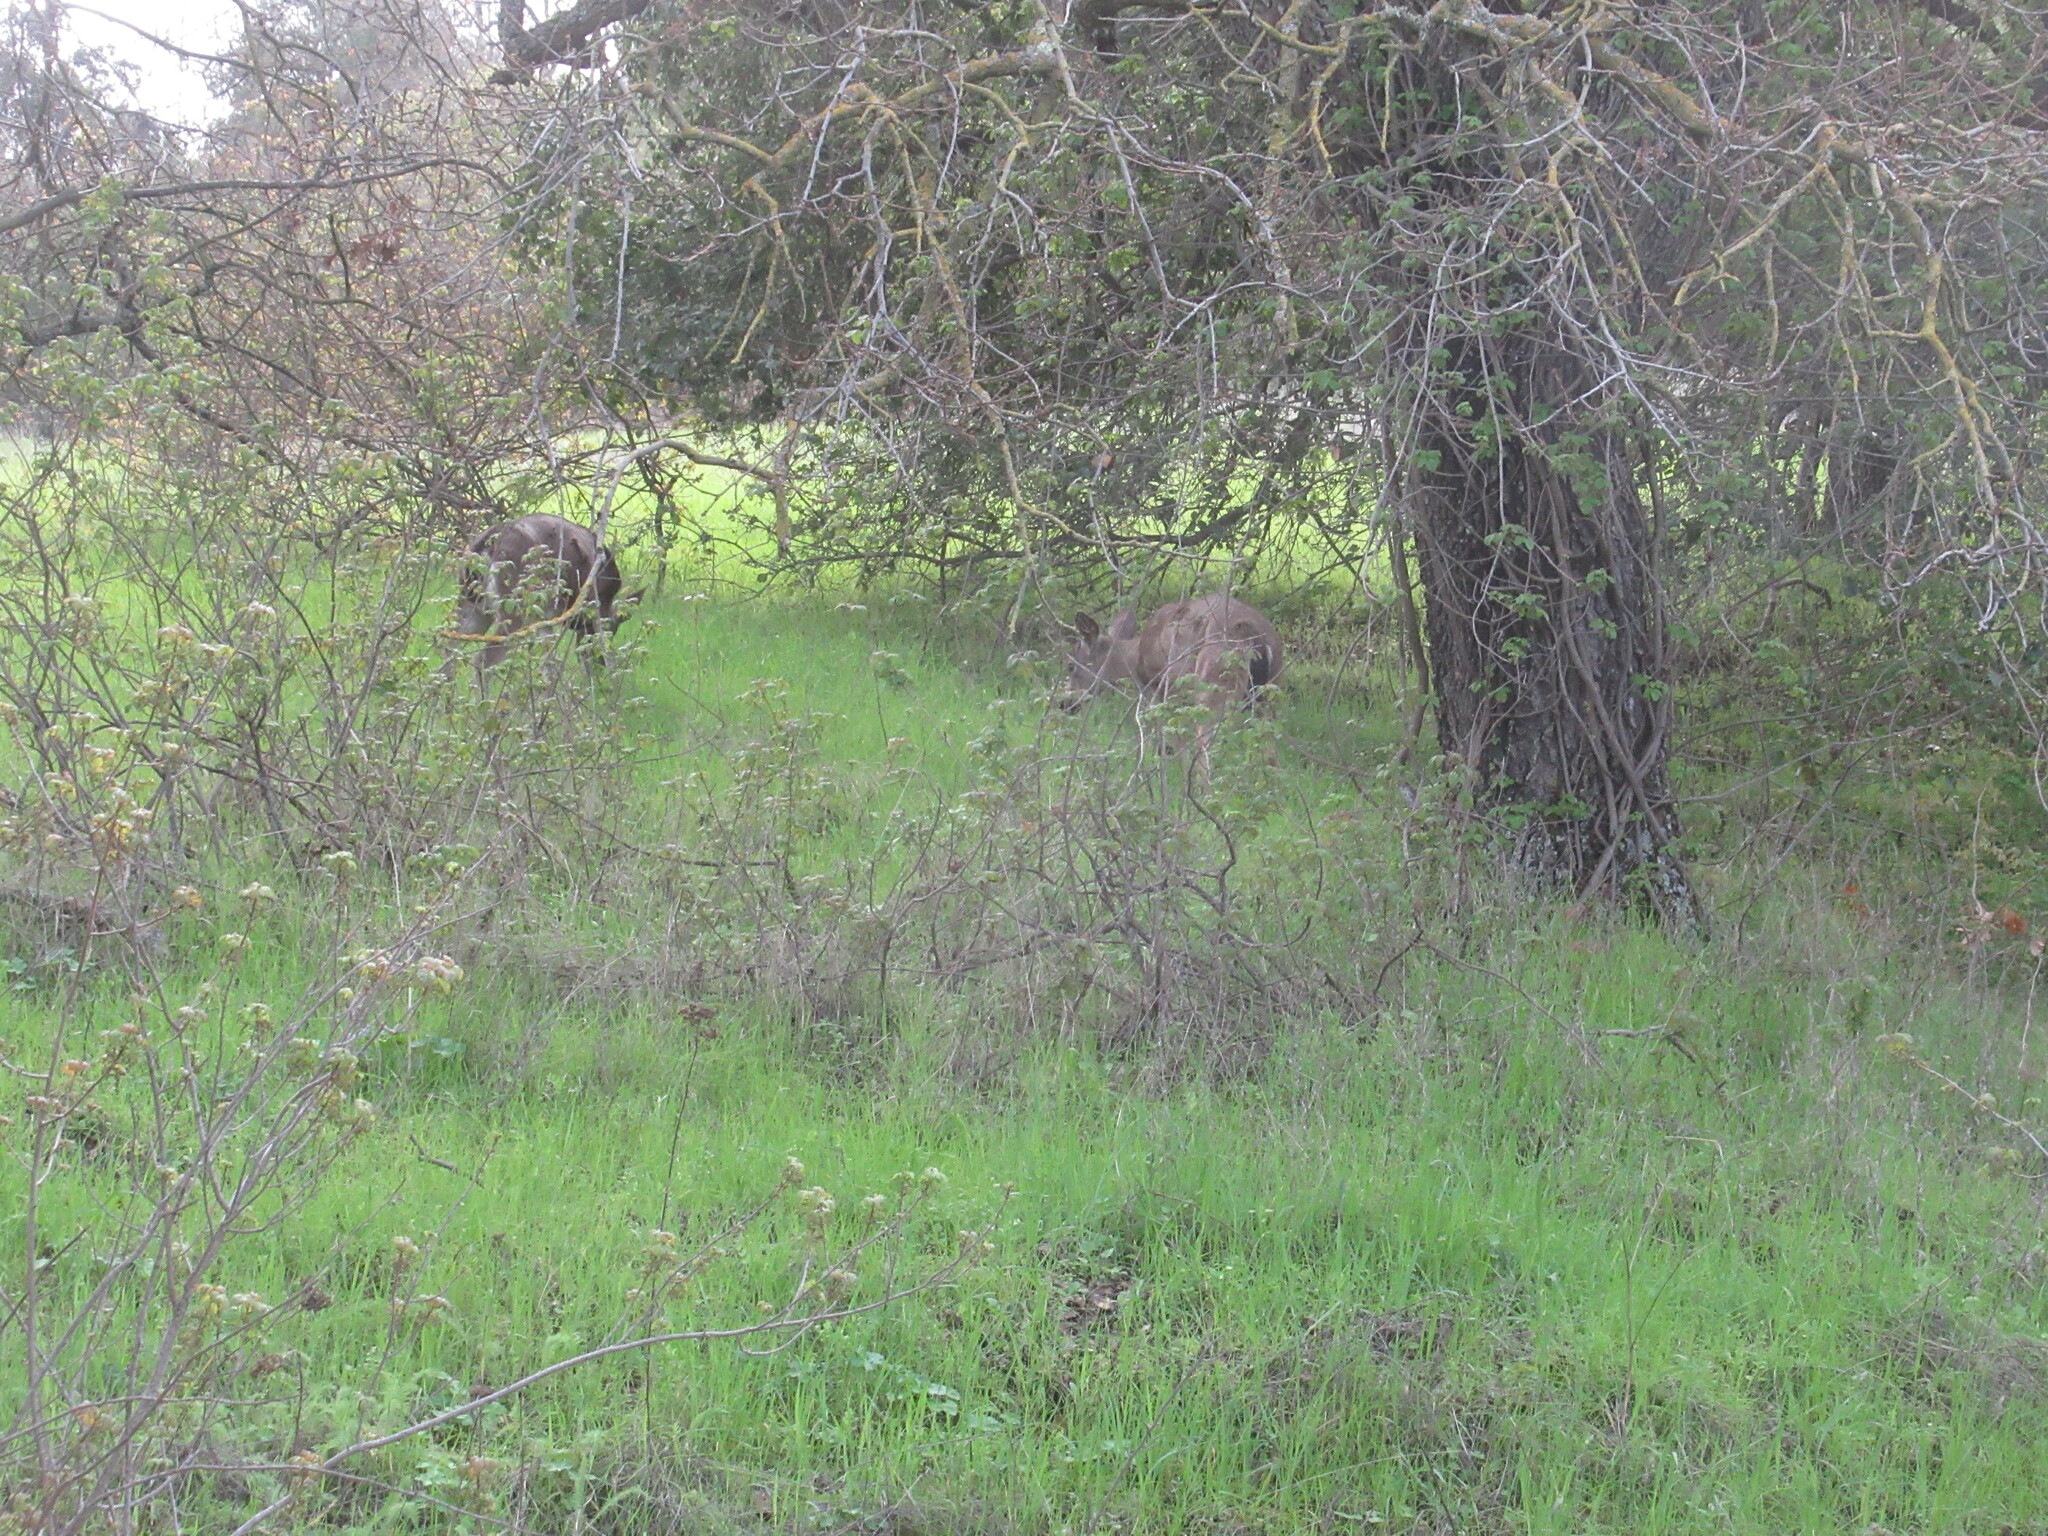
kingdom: Animalia
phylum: Chordata
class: Mammalia
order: Artiodactyla
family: Cervidae
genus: Odocoileus
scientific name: Odocoileus hemionus
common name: Mule deer
